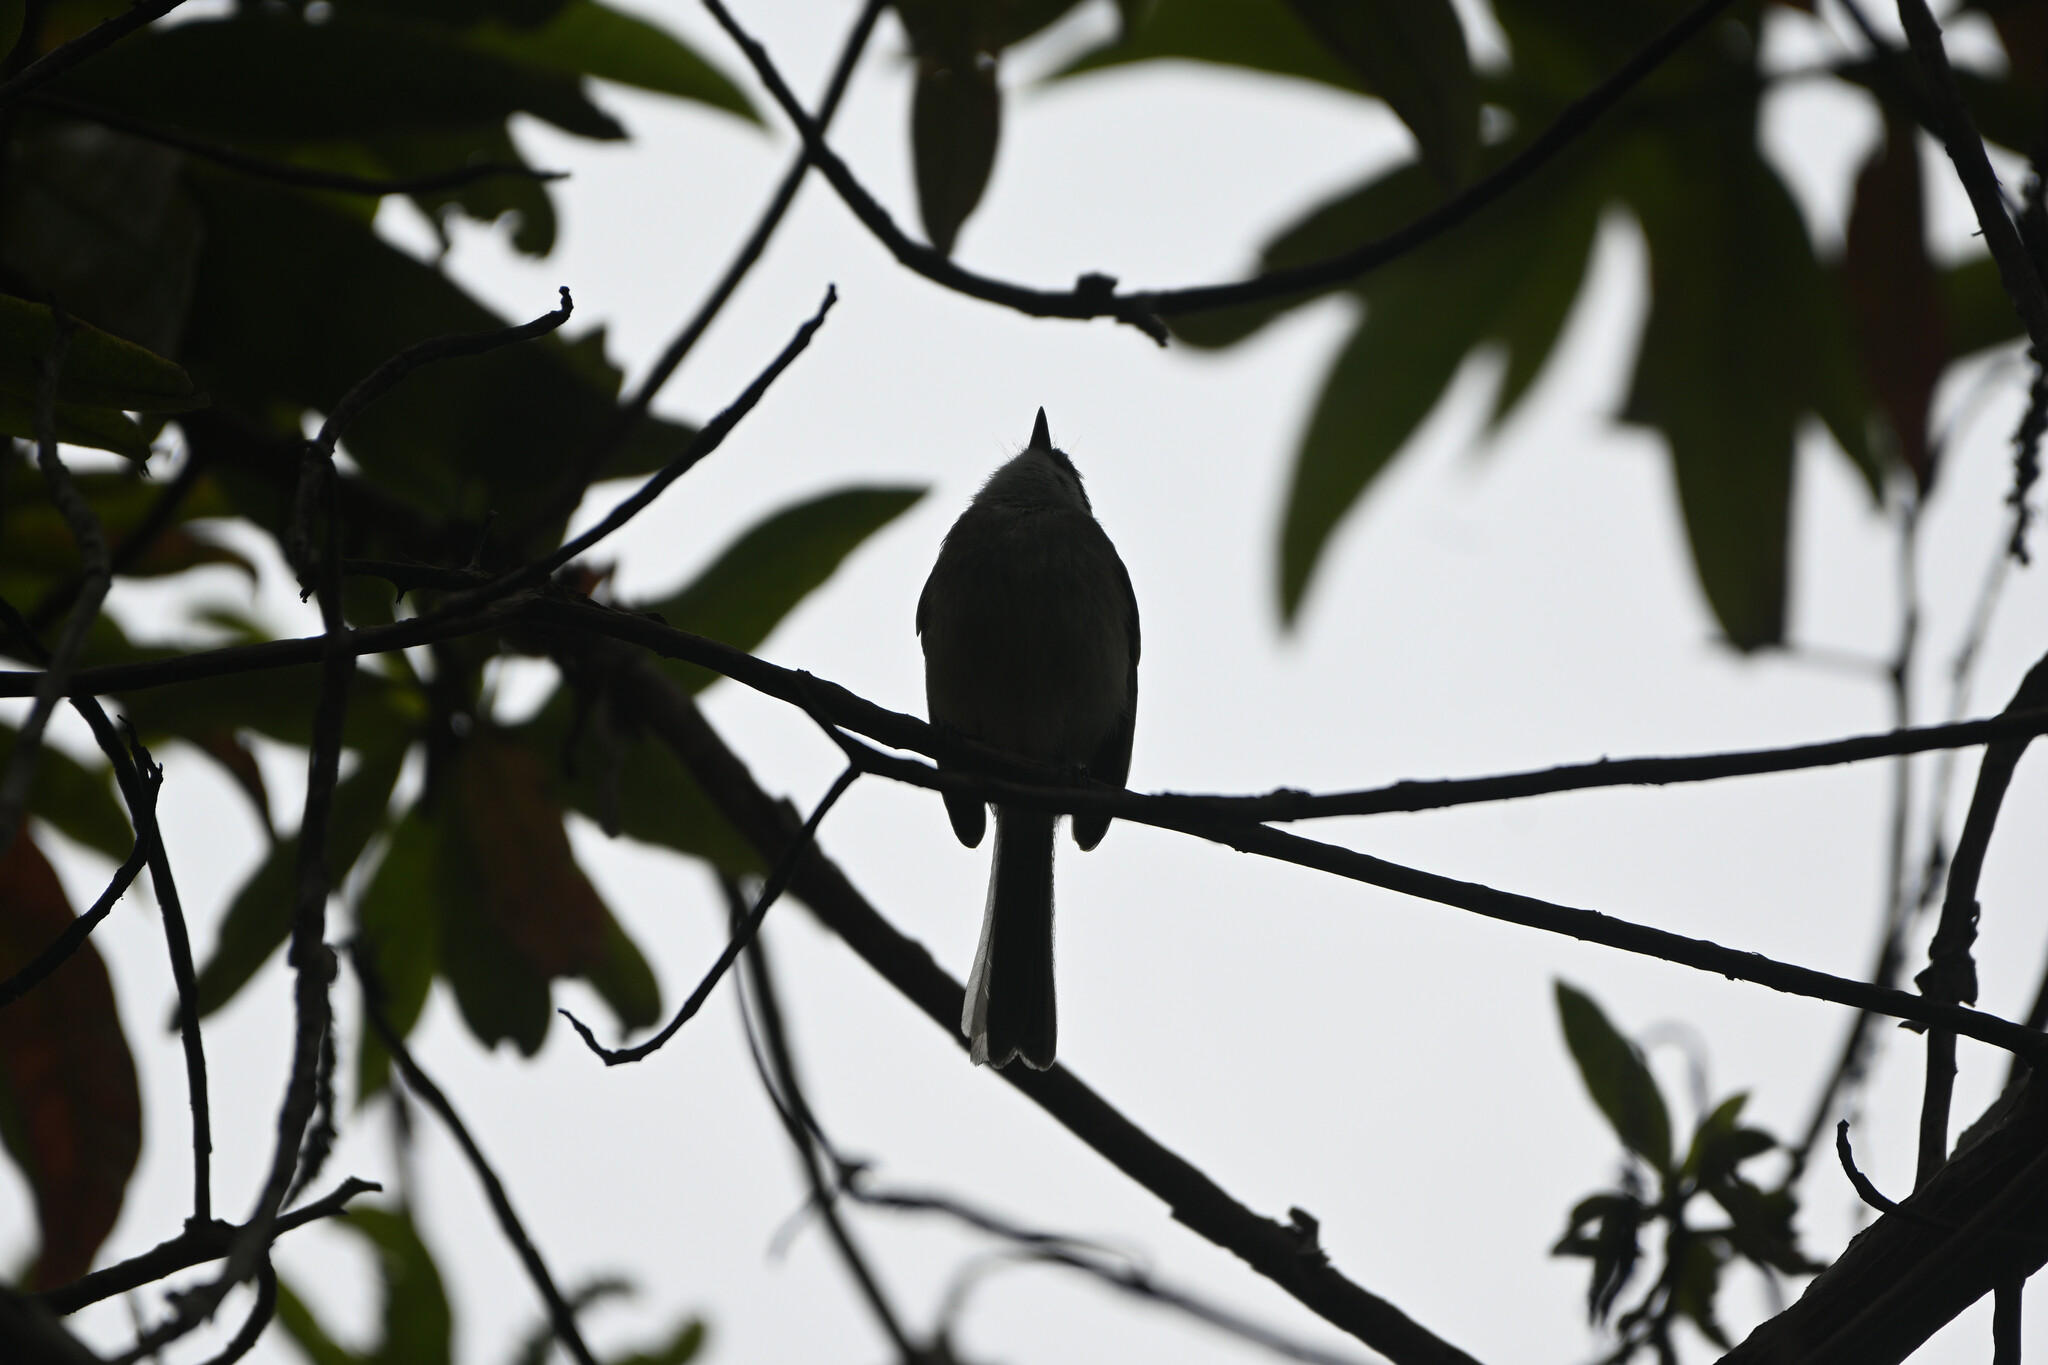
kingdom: Animalia
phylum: Chordata
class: Aves
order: Passeriformes
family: Tyrannidae
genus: Mecocerculus
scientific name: Mecocerculus leucophrys
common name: White-throated tyrannulet
